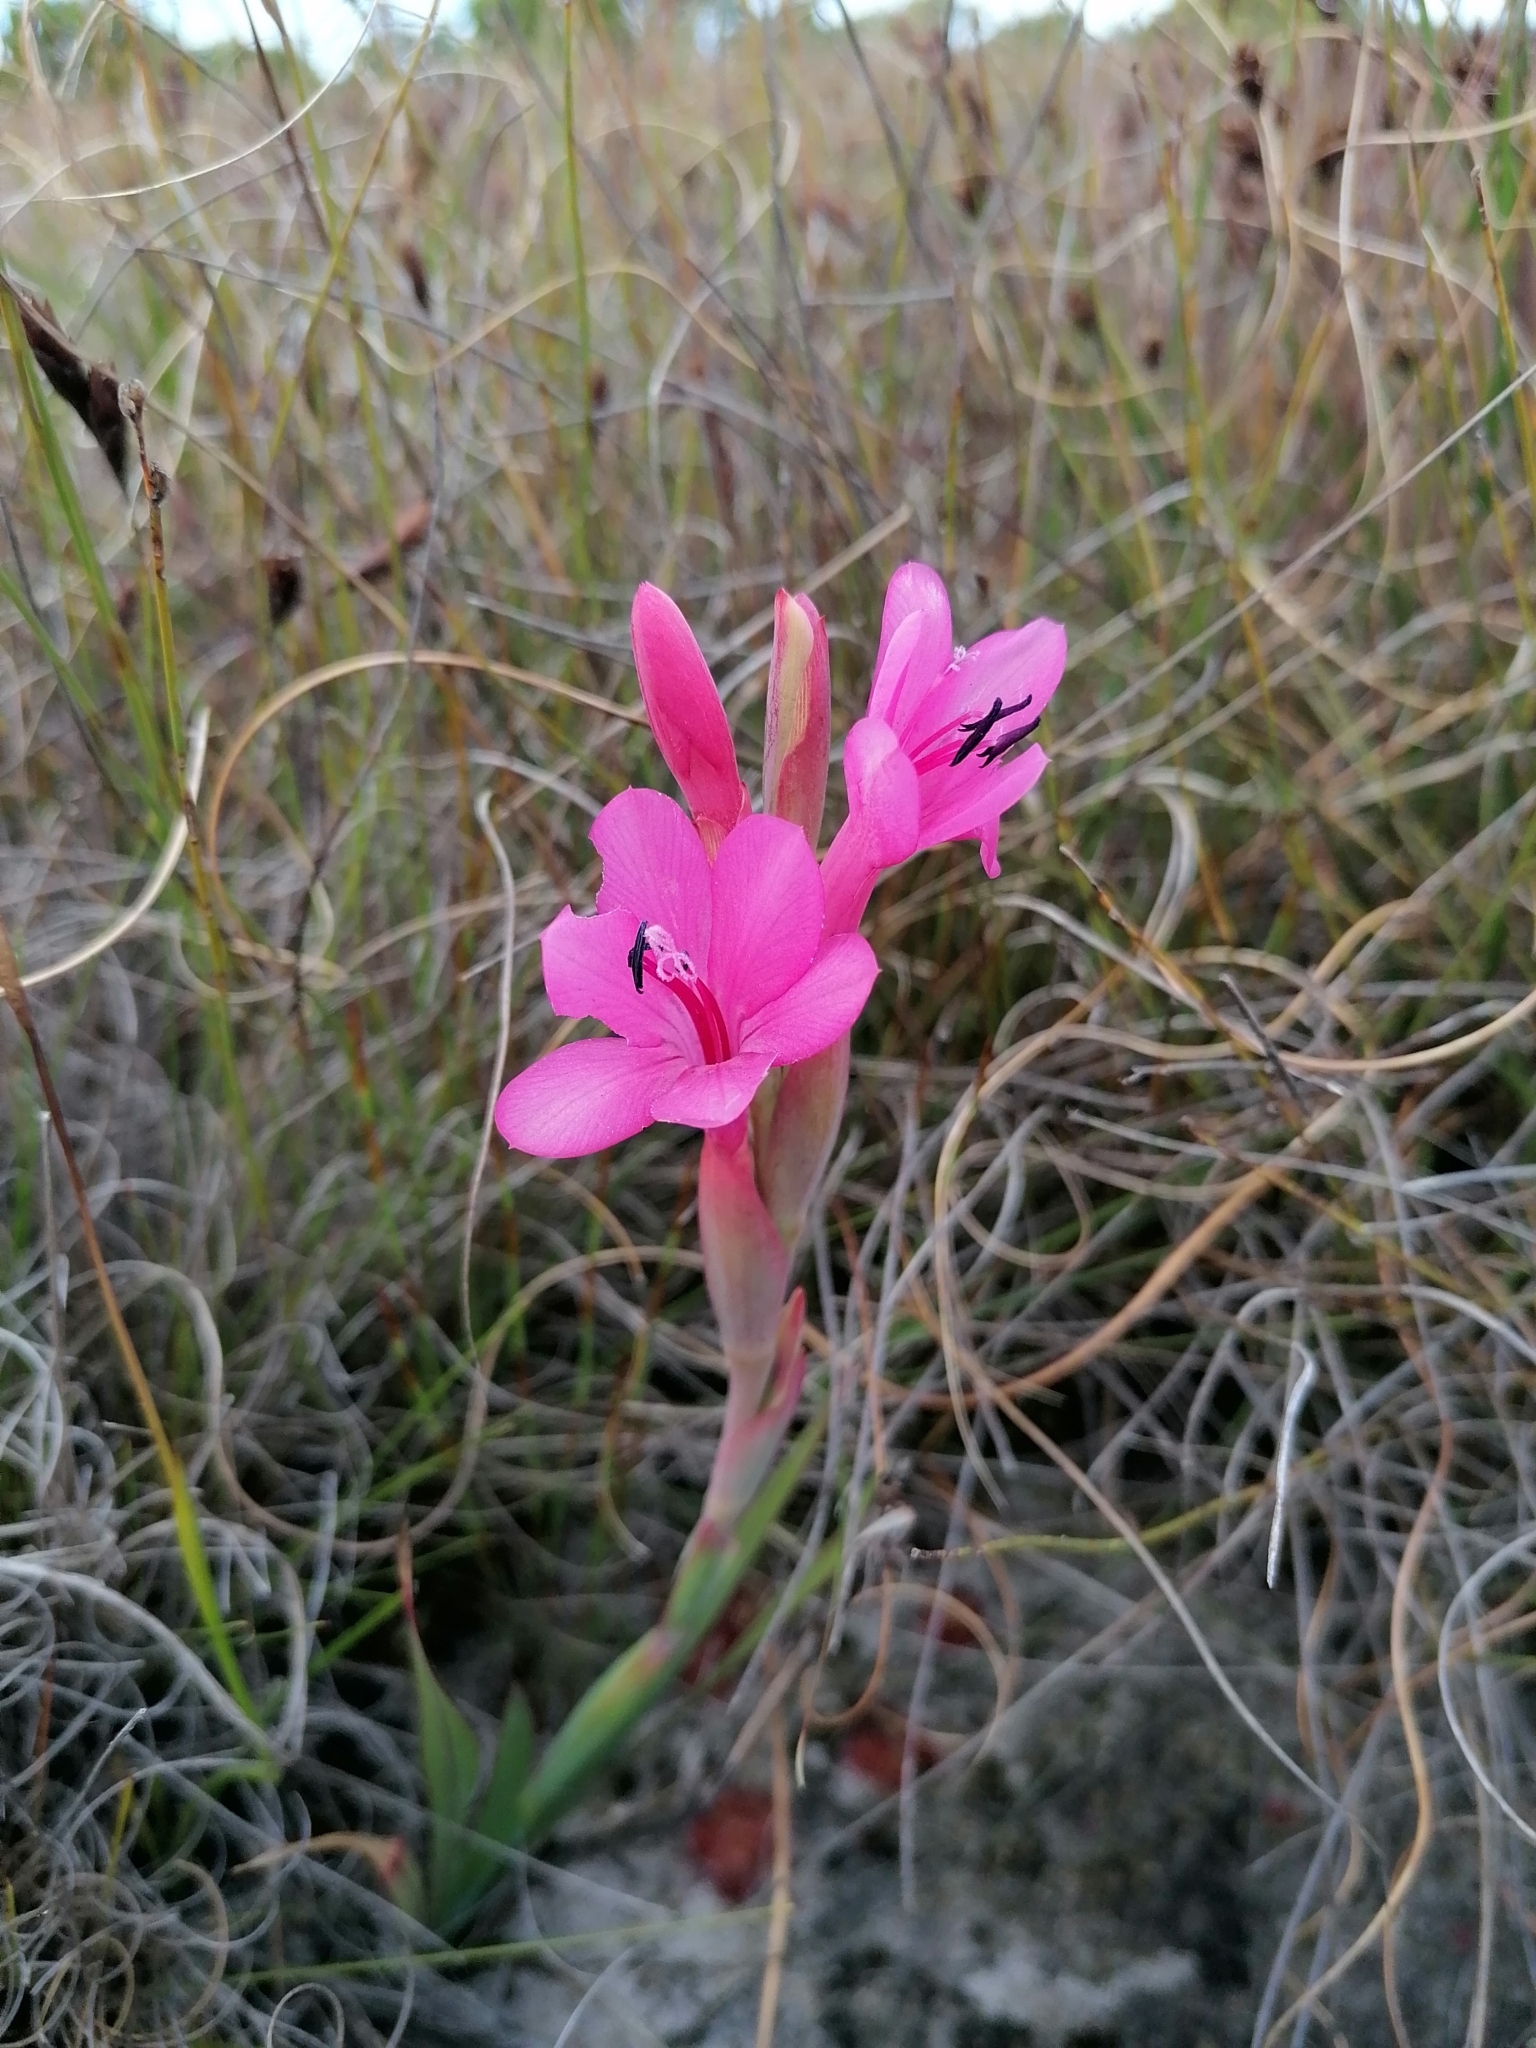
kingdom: Plantae
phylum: Tracheophyta
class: Liliopsida
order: Asparagales
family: Iridaceae
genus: Watsonia
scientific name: Watsonia coccinea
